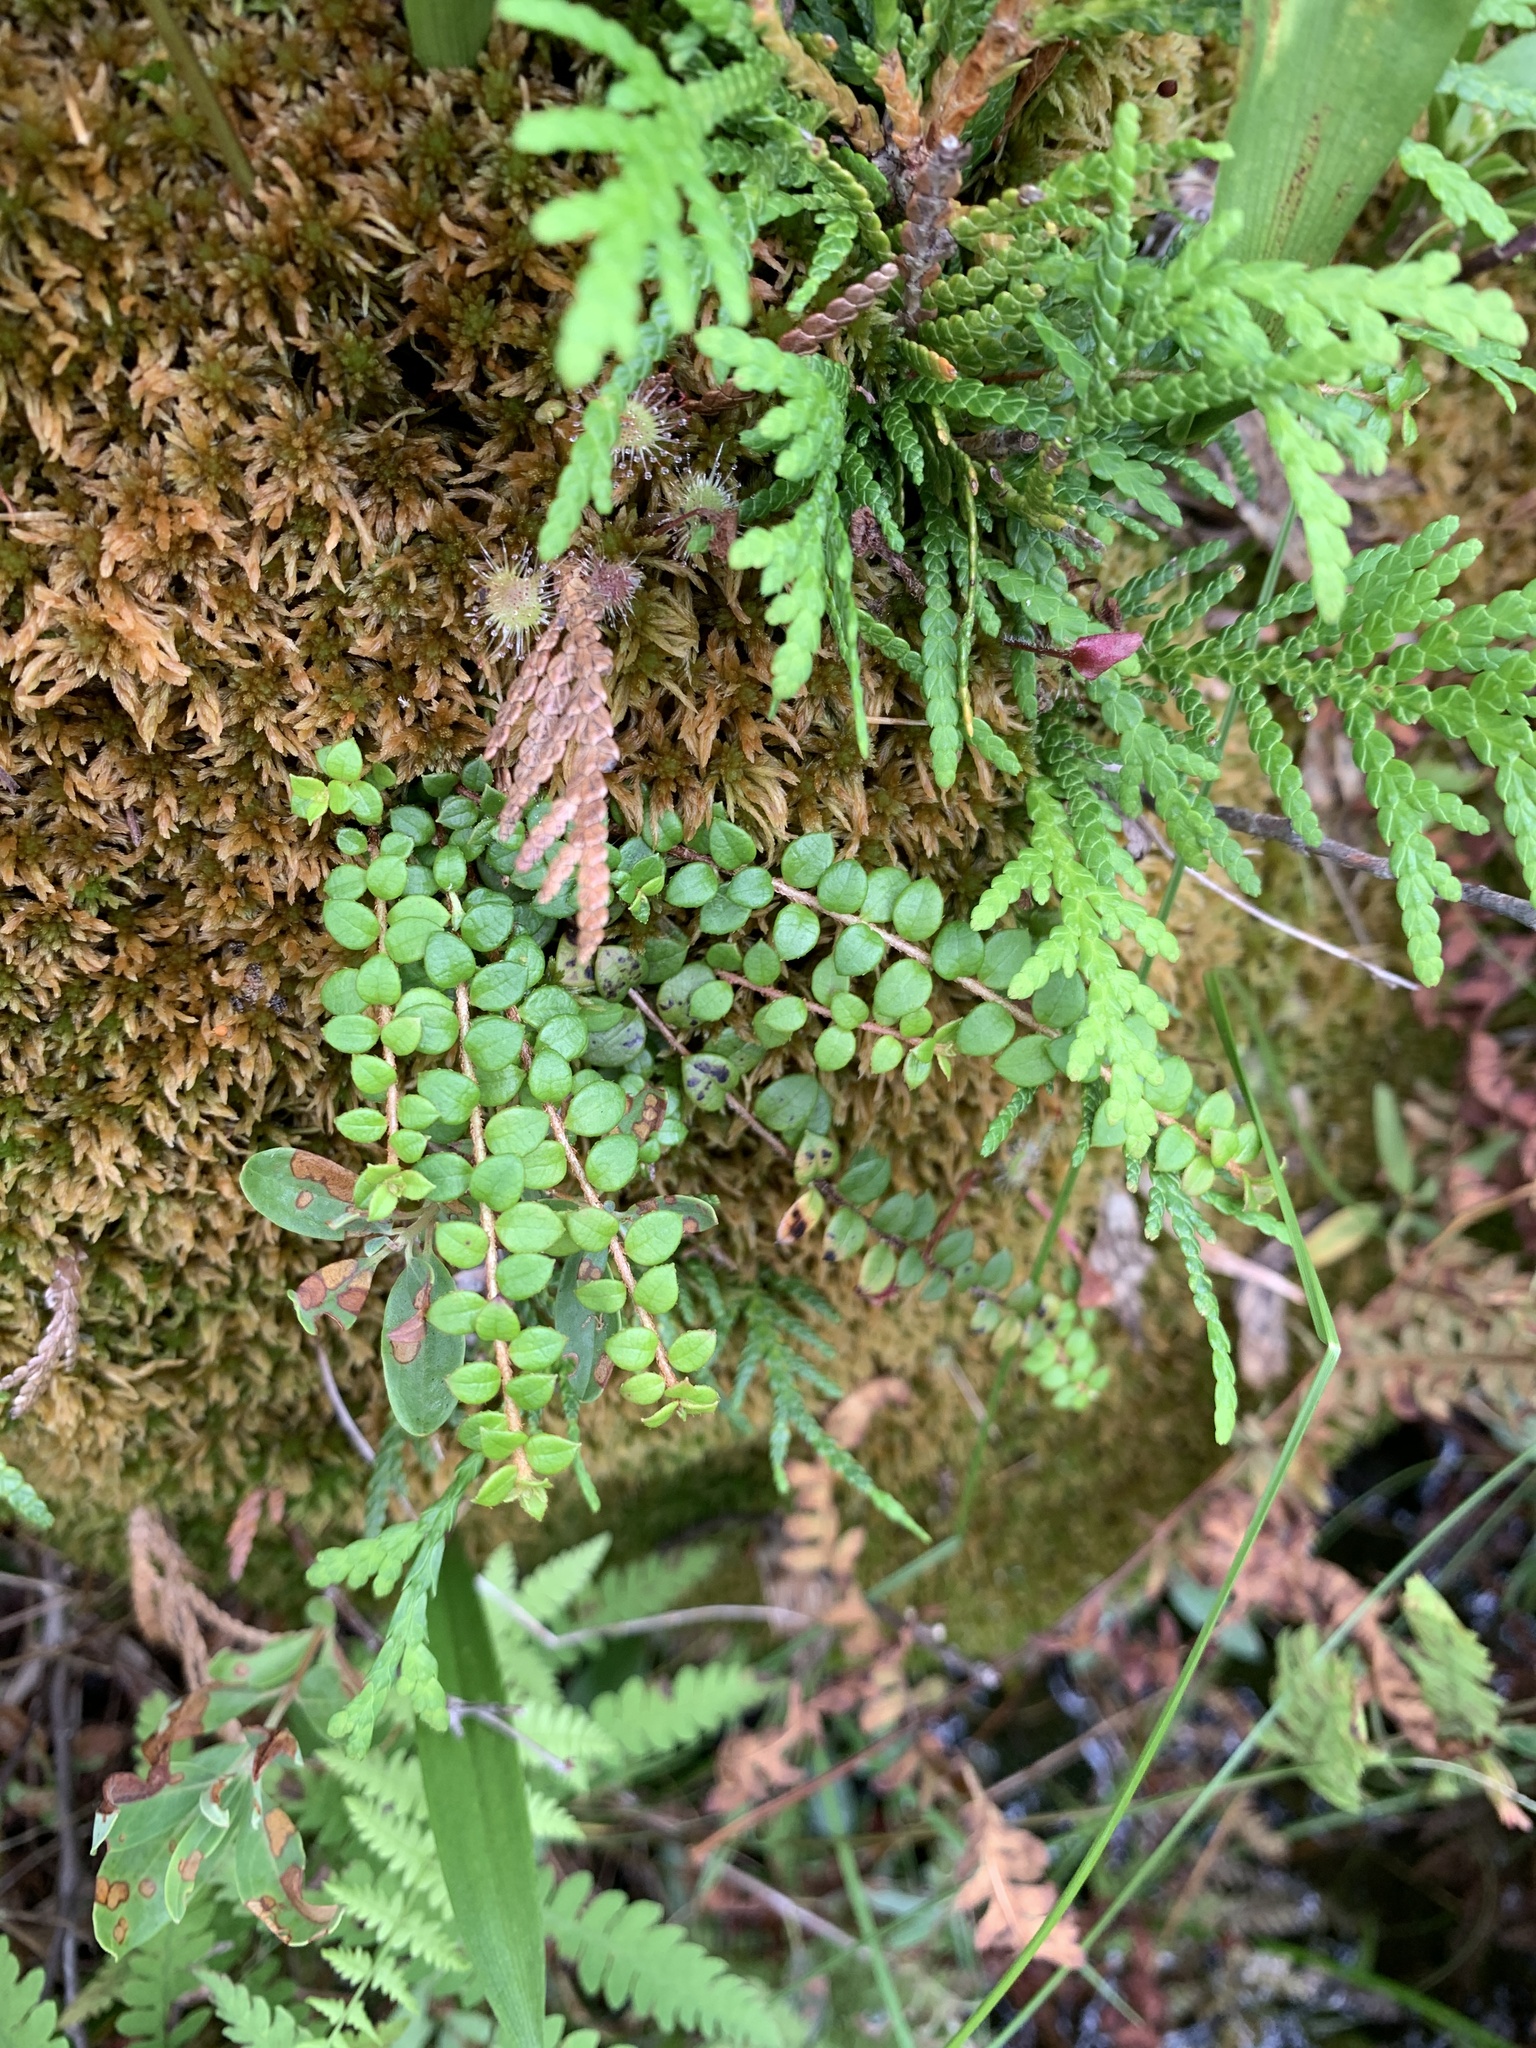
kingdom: Plantae
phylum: Tracheophyta
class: Magnoliopsida
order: Ericales
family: Ericaceae
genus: Gaultheria
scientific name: Gaultheria hispidula
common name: Cancer wintergreen
